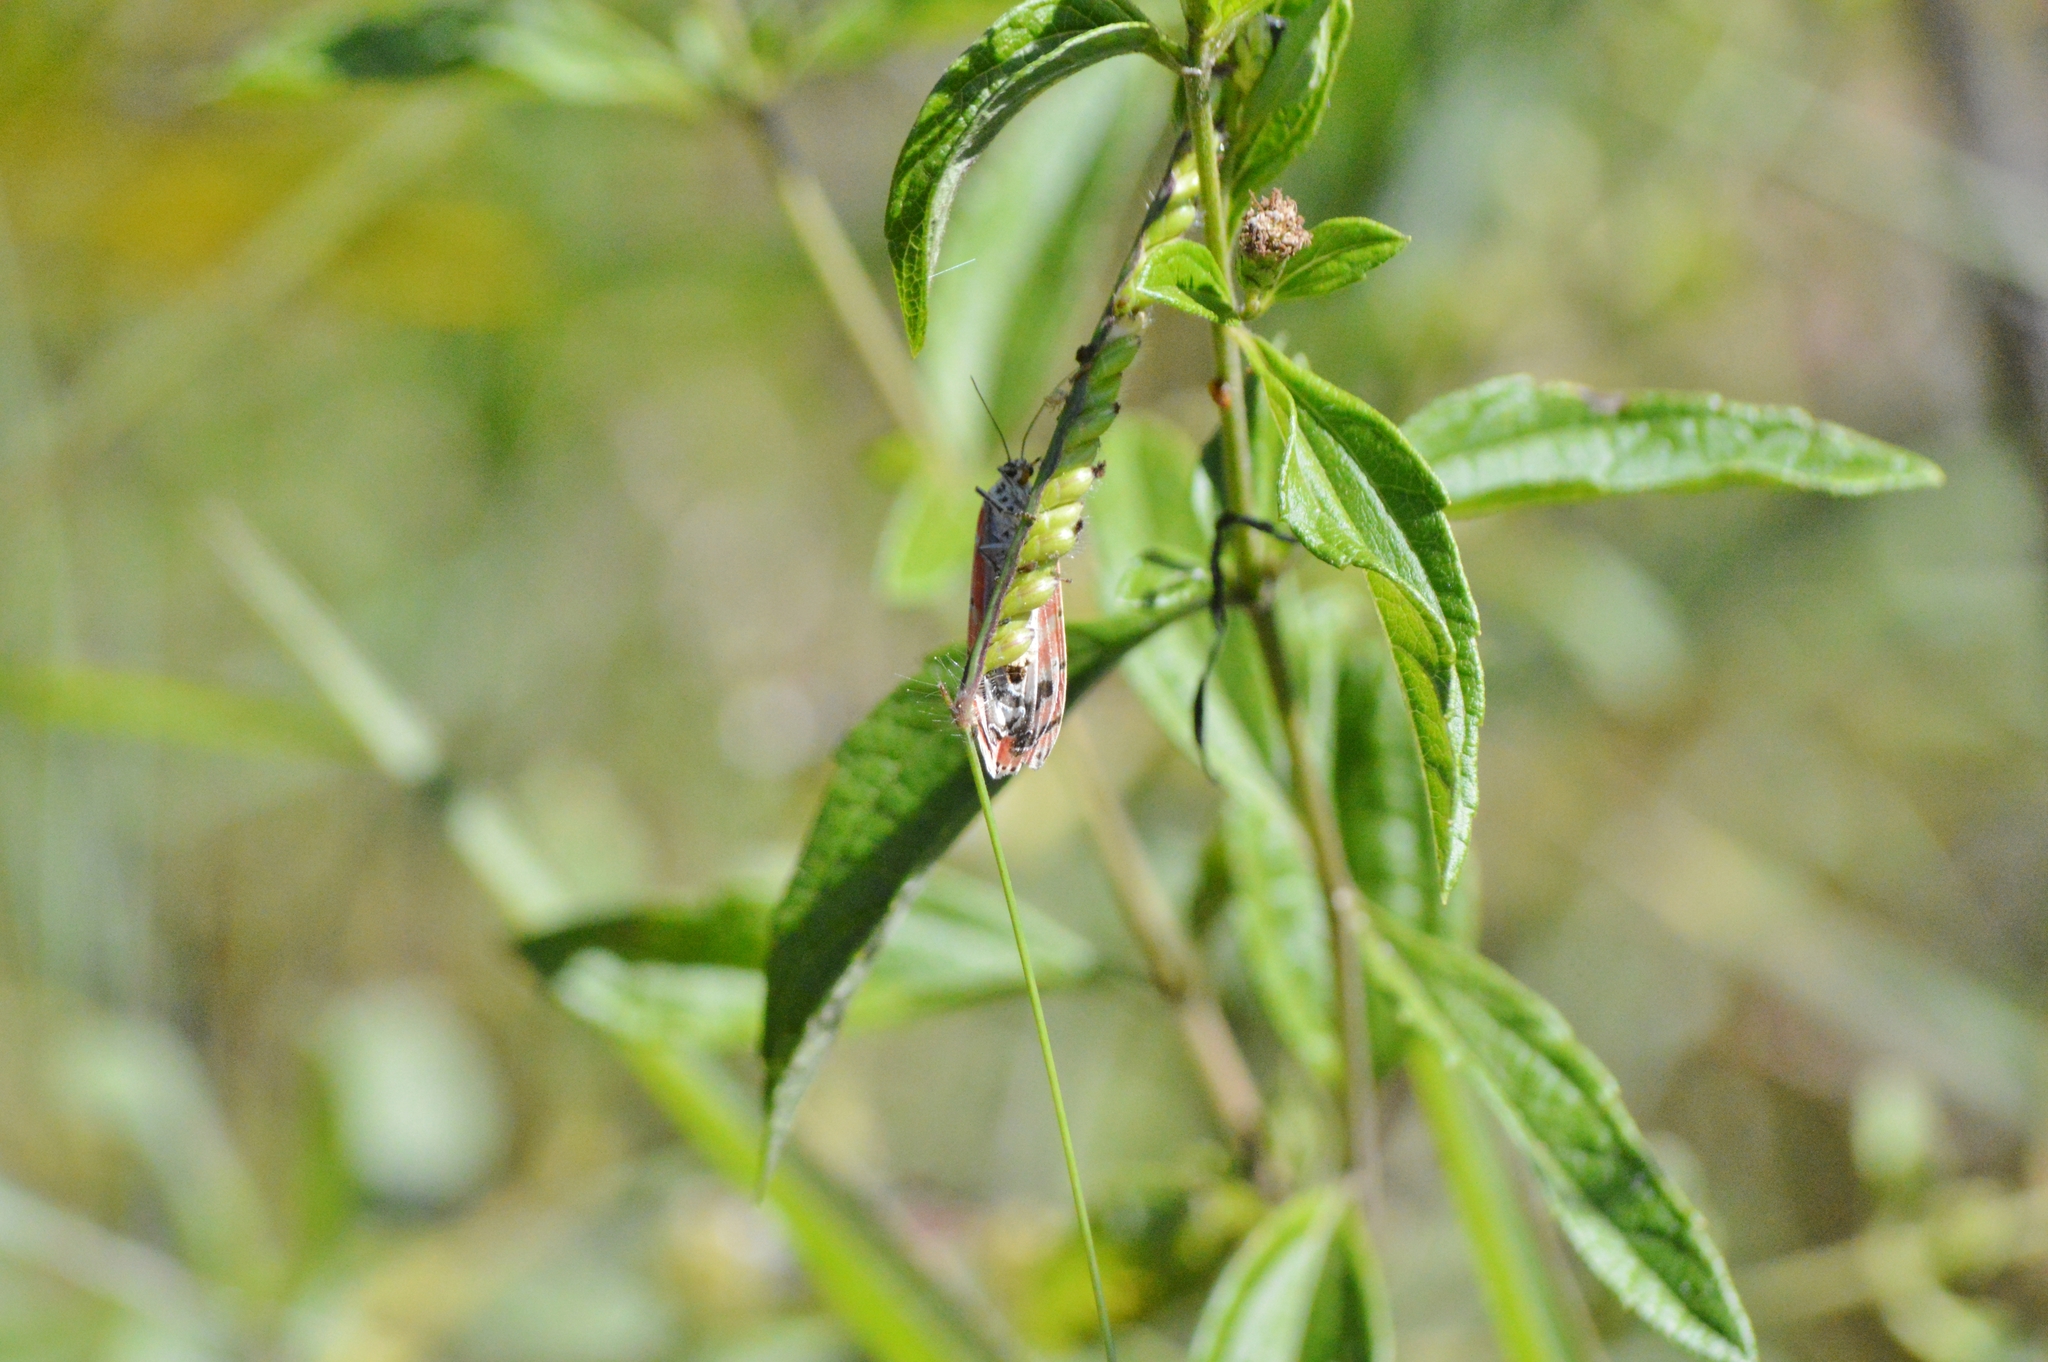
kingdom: Animalia
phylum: Arthropoda
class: Insecta
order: Lepidoptera
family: Erebidae
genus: Utetheisa
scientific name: Utetheisa ornatrix
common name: Beautiful utetheisa
